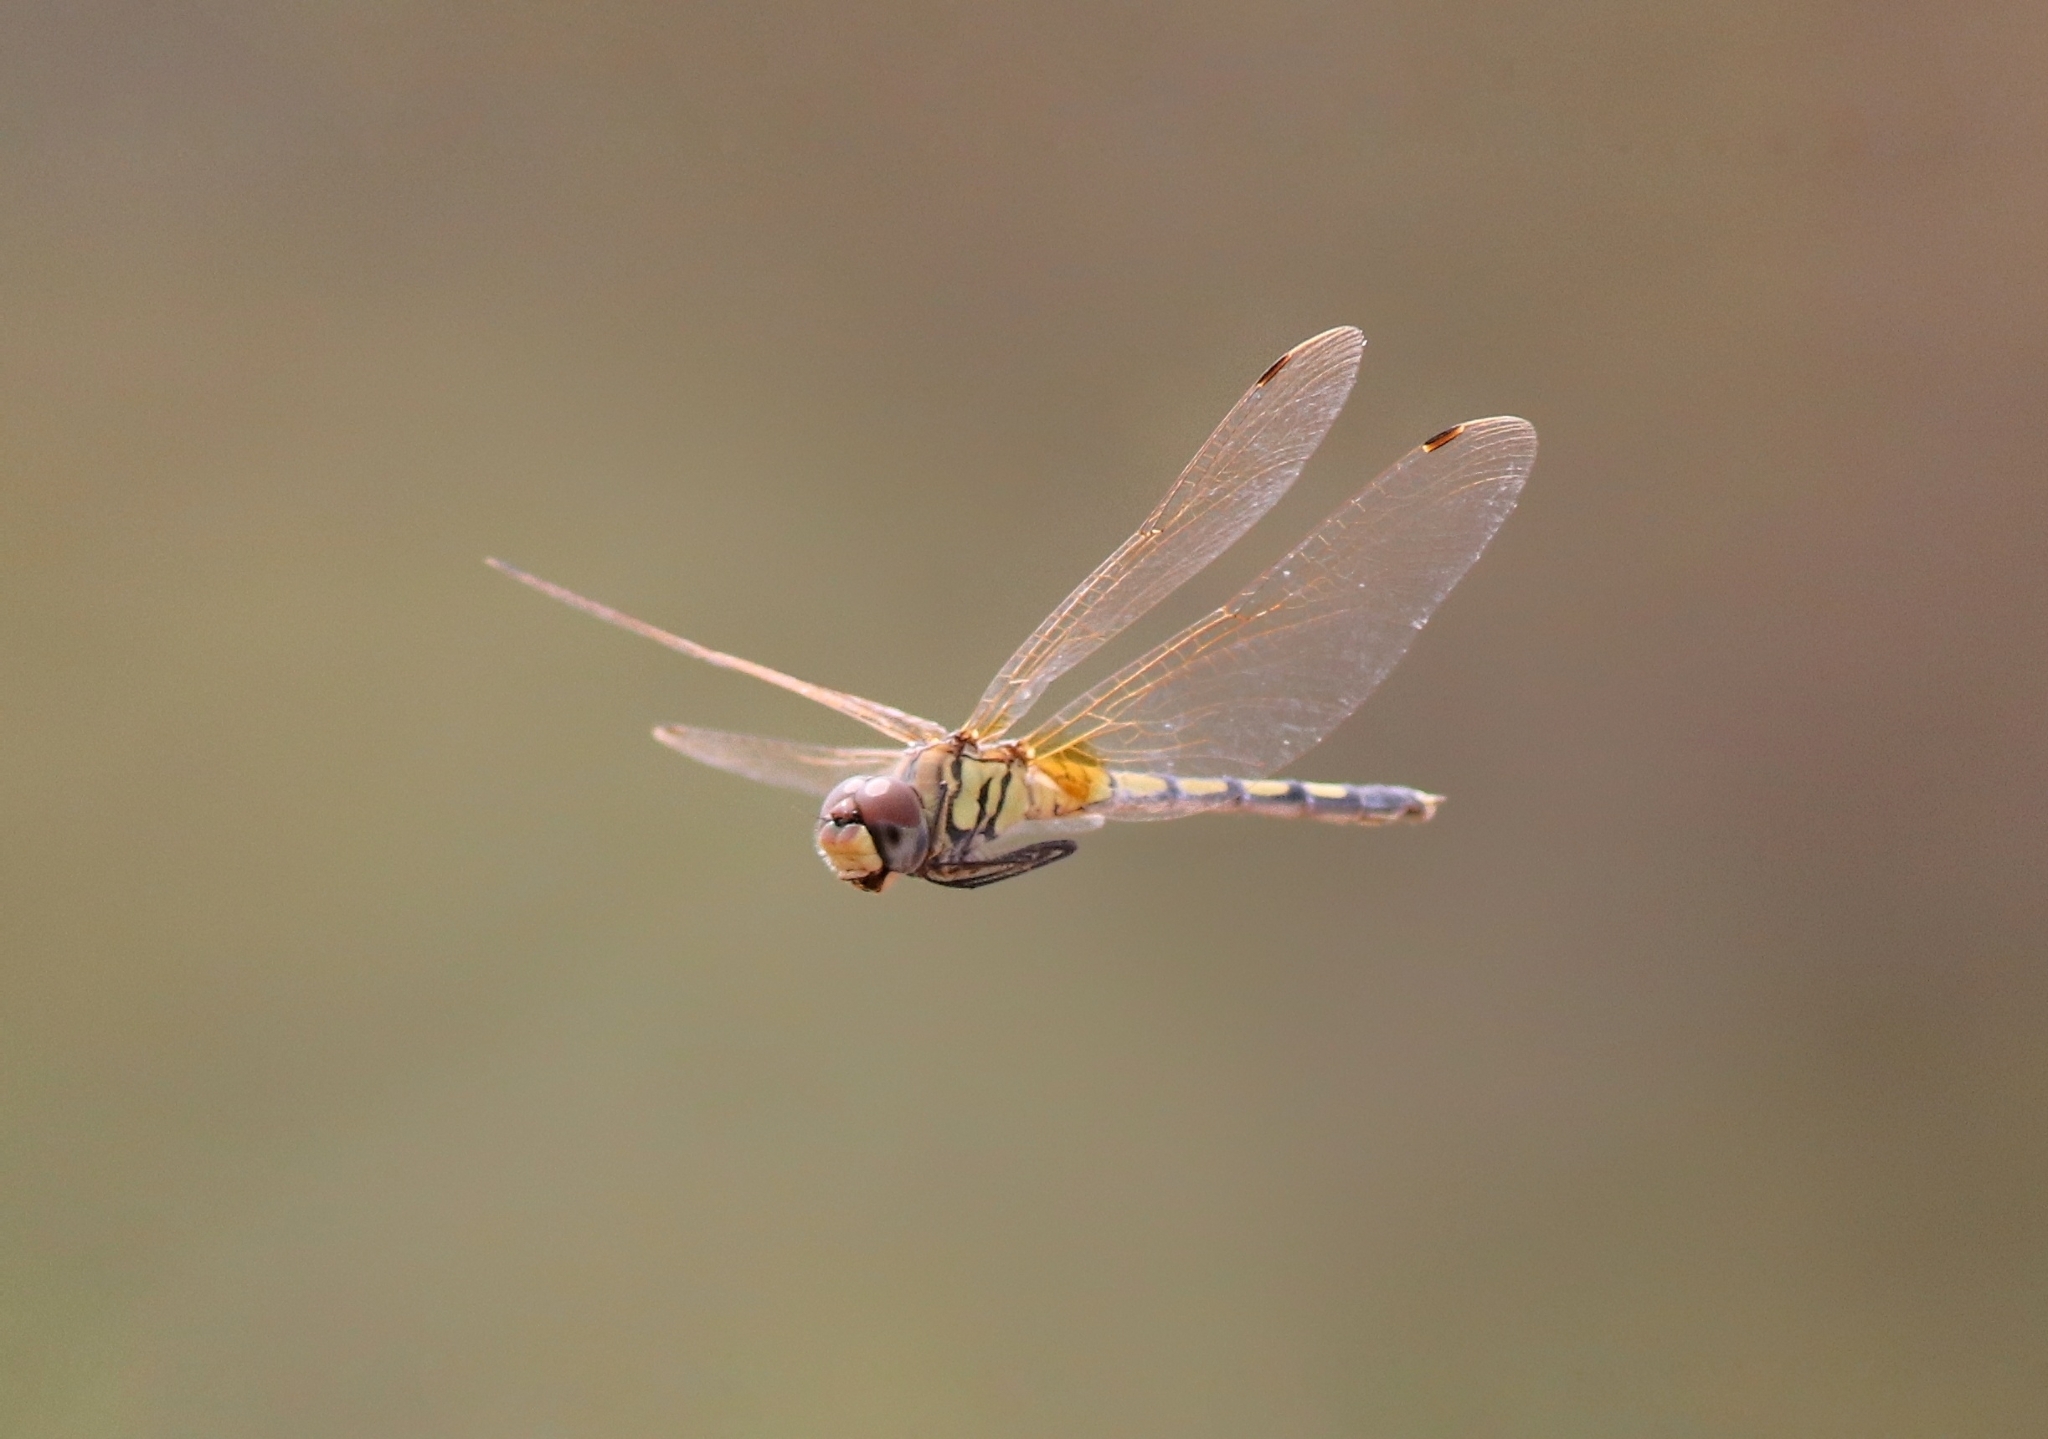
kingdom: Animalia
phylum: Arthropoda
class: Insecta
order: Odonata
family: Libellulidae
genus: Trithemis
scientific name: Trithemis pallidinervis
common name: Dancing dropwing
